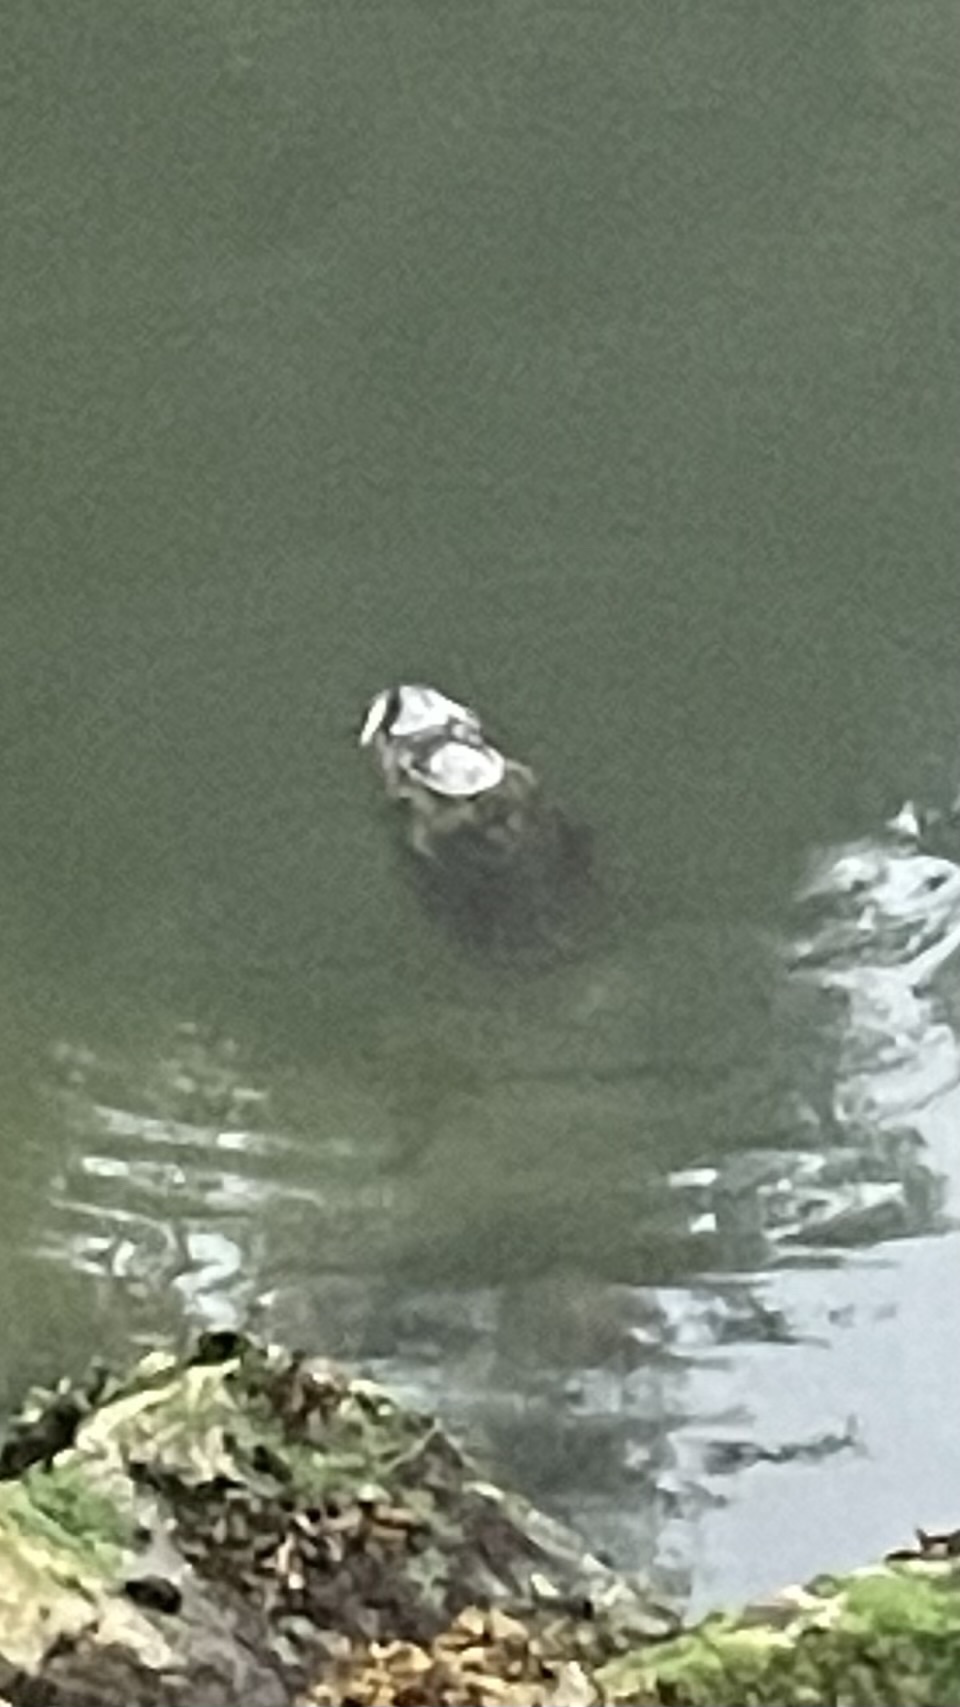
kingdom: Animalia
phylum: Chordata
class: Mammalia
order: Carnivora
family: Phocidae
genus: Phoca
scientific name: Phoca vitulina
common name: Harbor seal
